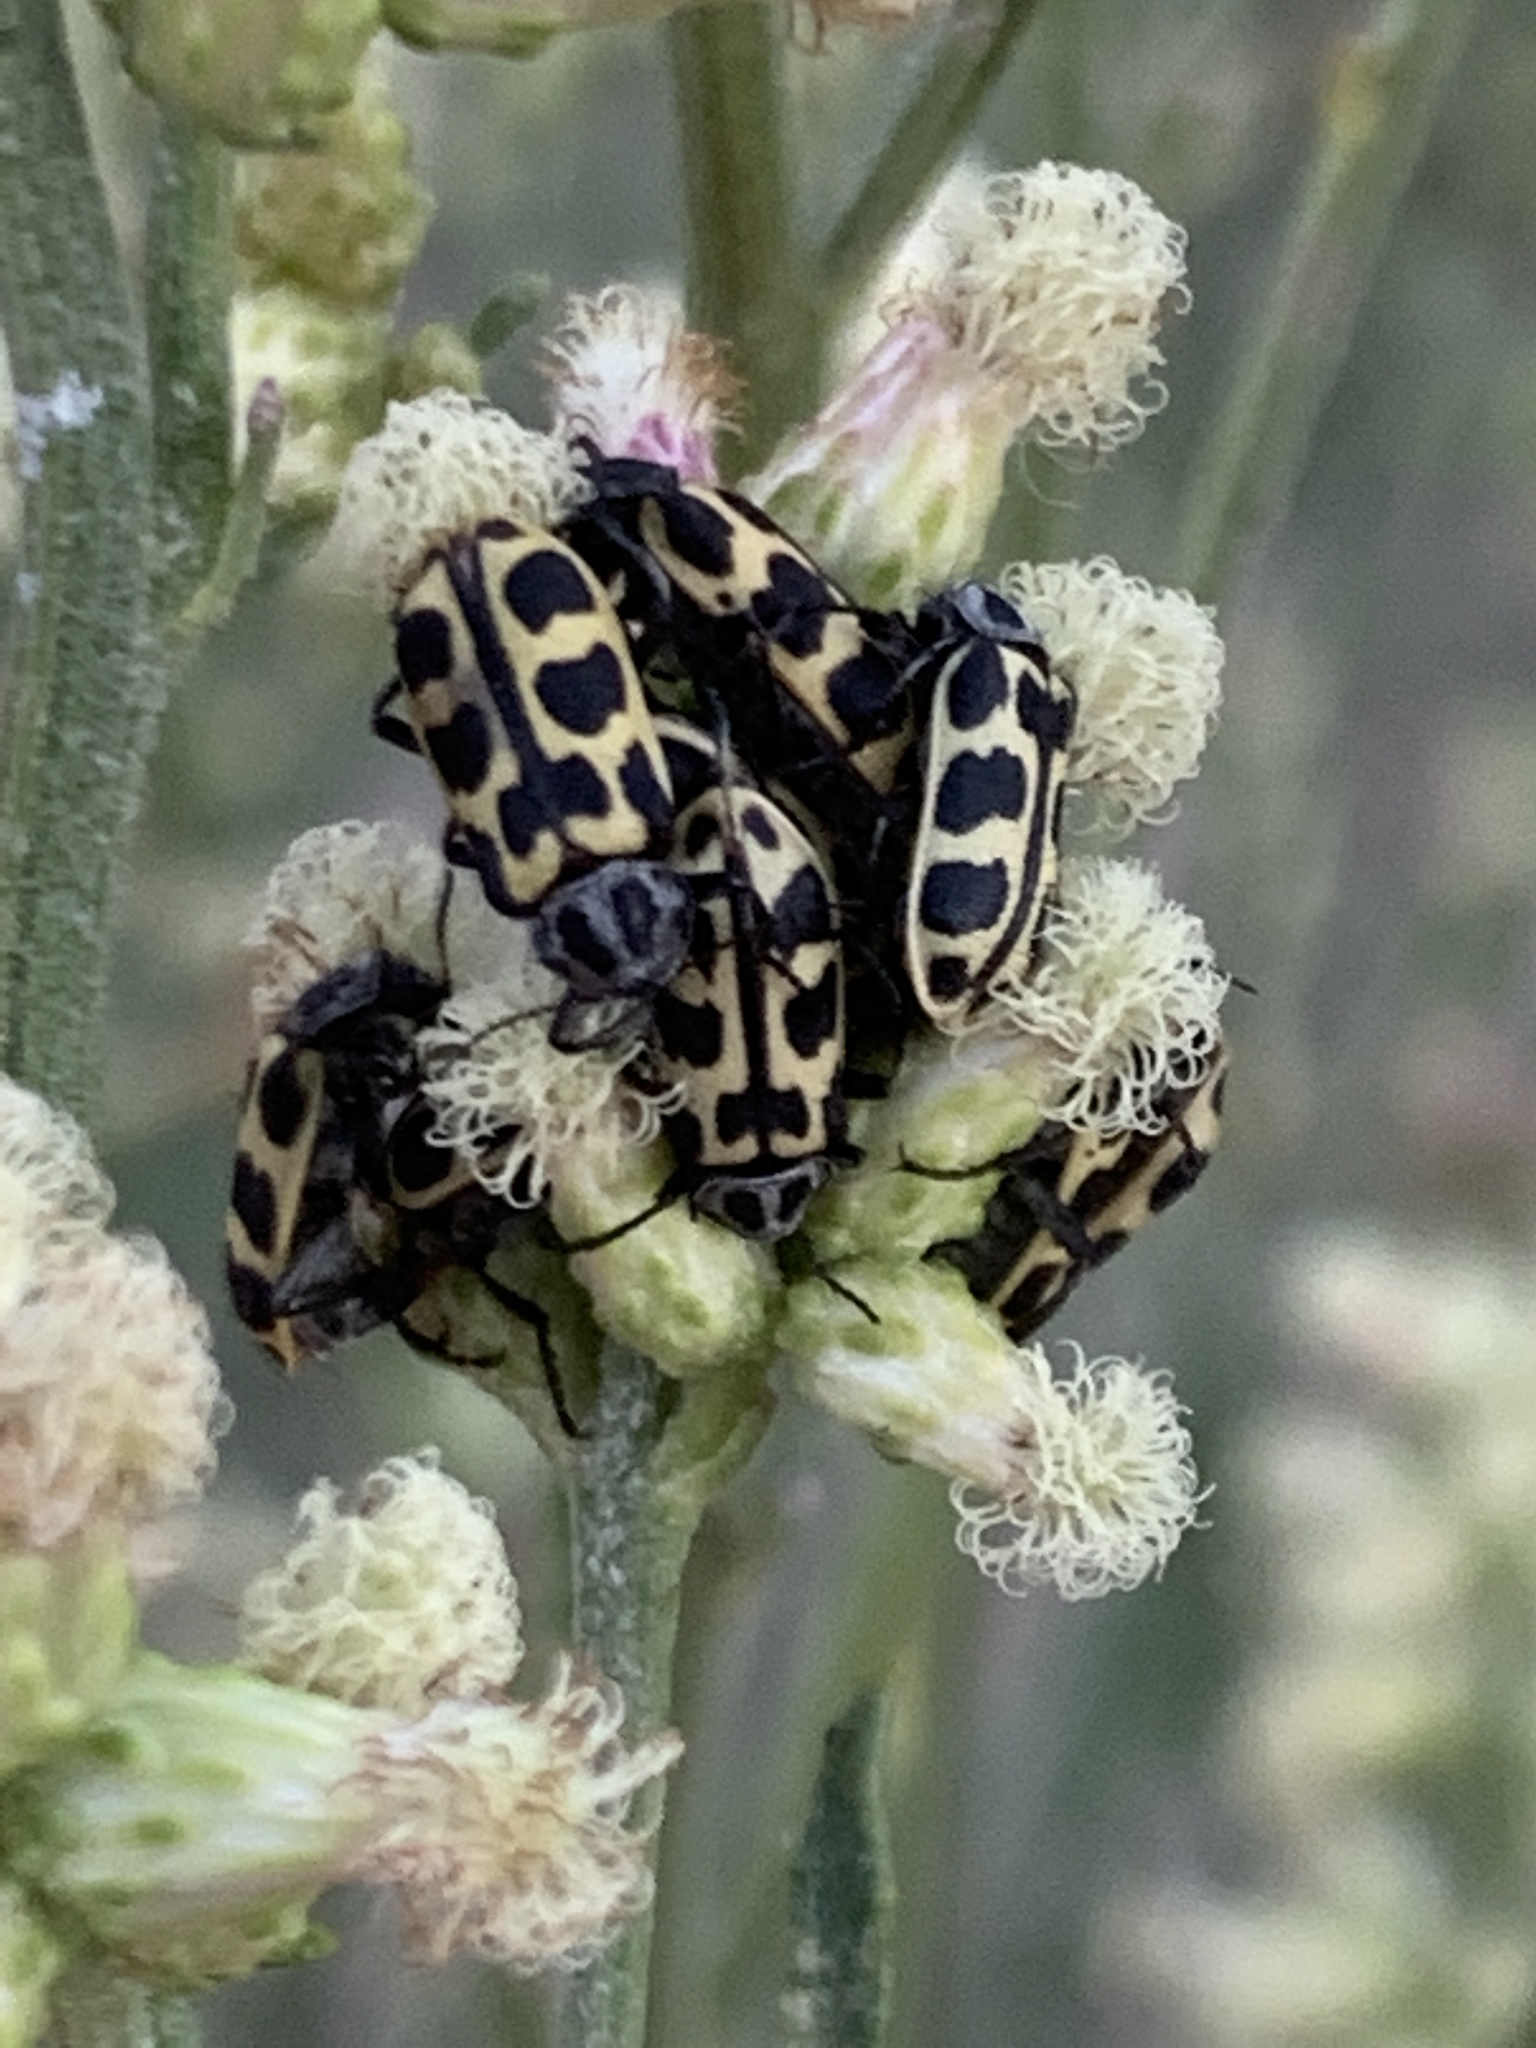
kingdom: Animalia
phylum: Arthropoda
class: Insecta
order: Coleoptera
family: Melyridae
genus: Astylus
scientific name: Astylus atromaculatus
